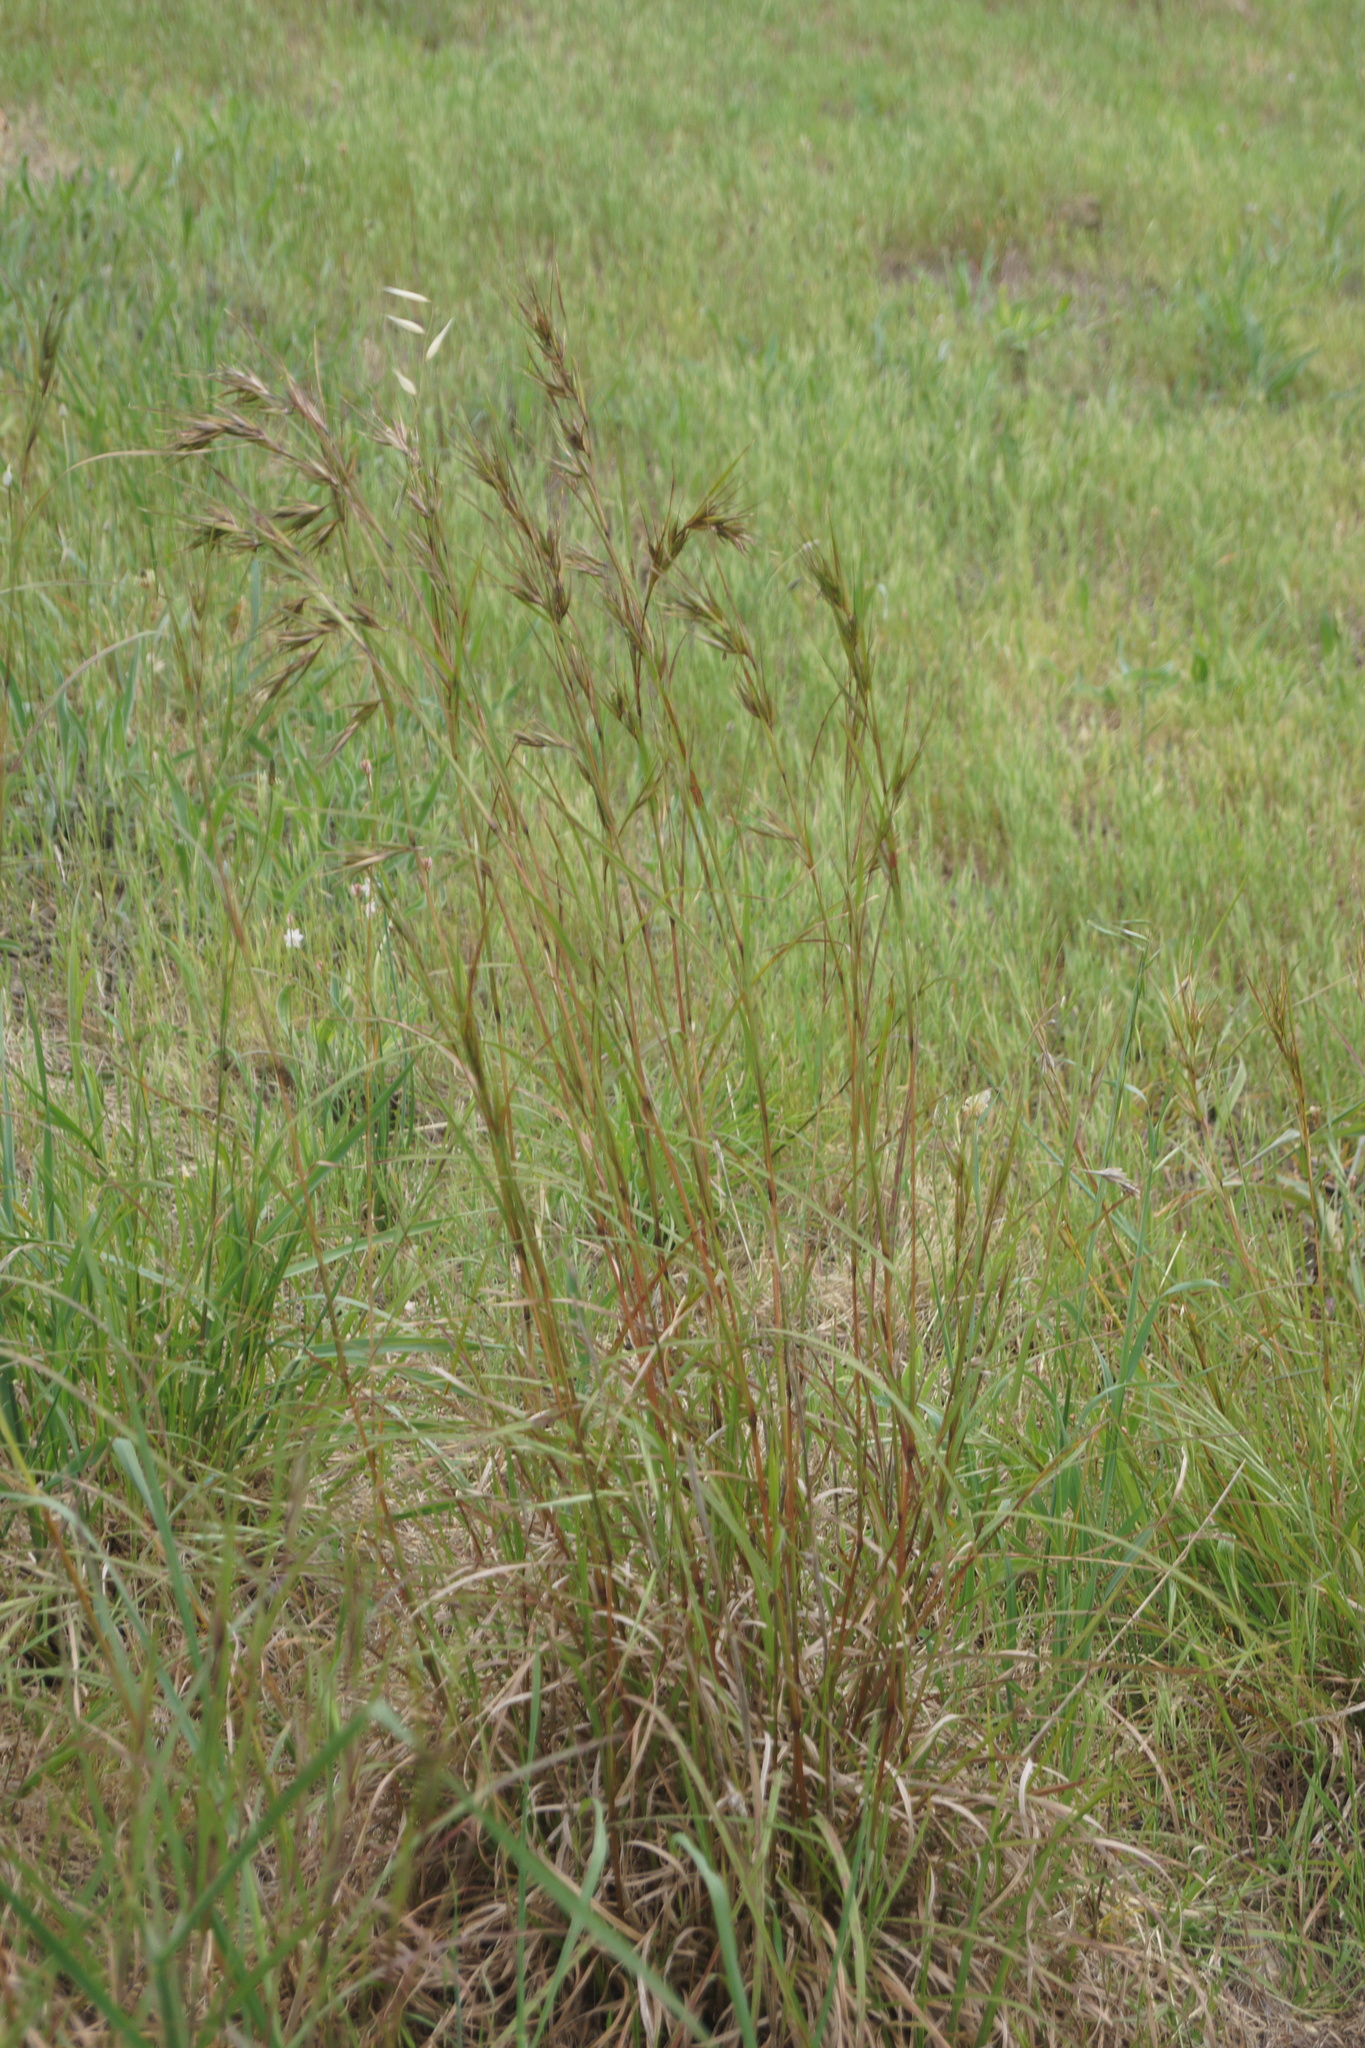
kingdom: Plantae
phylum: Tracheophyta
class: Liliopsida
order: Poales
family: Poaceae
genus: Themeda
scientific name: Themeda triandra
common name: Kangaroo grass
